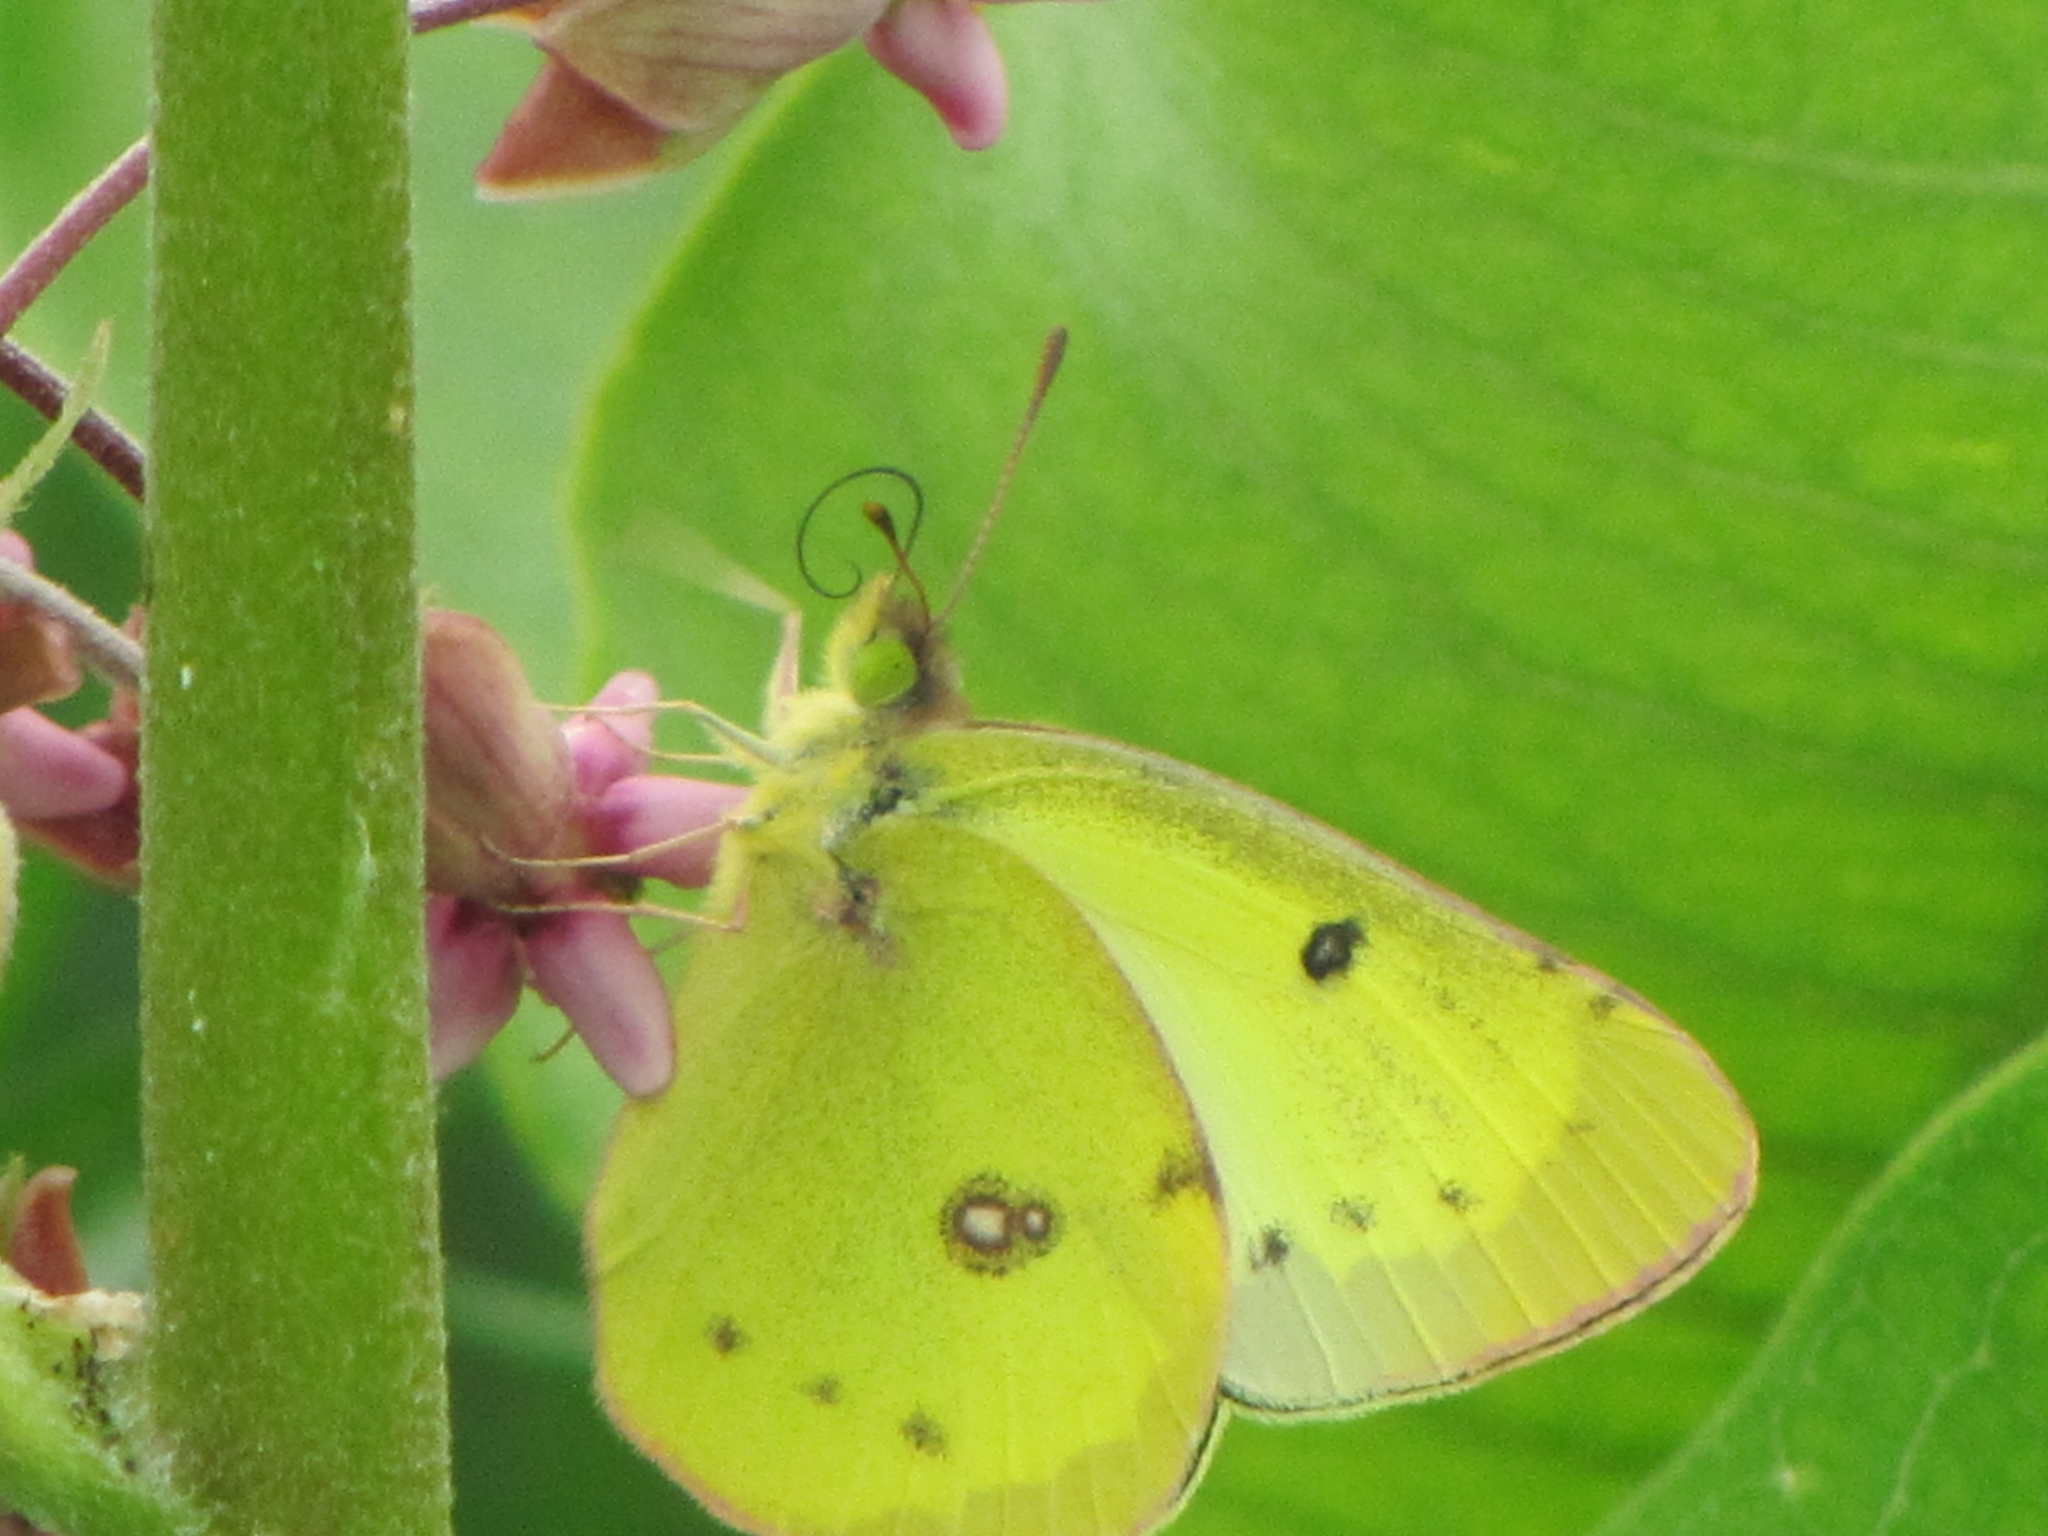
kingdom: Animalia
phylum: Arthropoda
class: Insecta
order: Lepidoptera
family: Pieridae
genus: Colias
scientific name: Colias eurytheme
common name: Alfalfa butterfly
